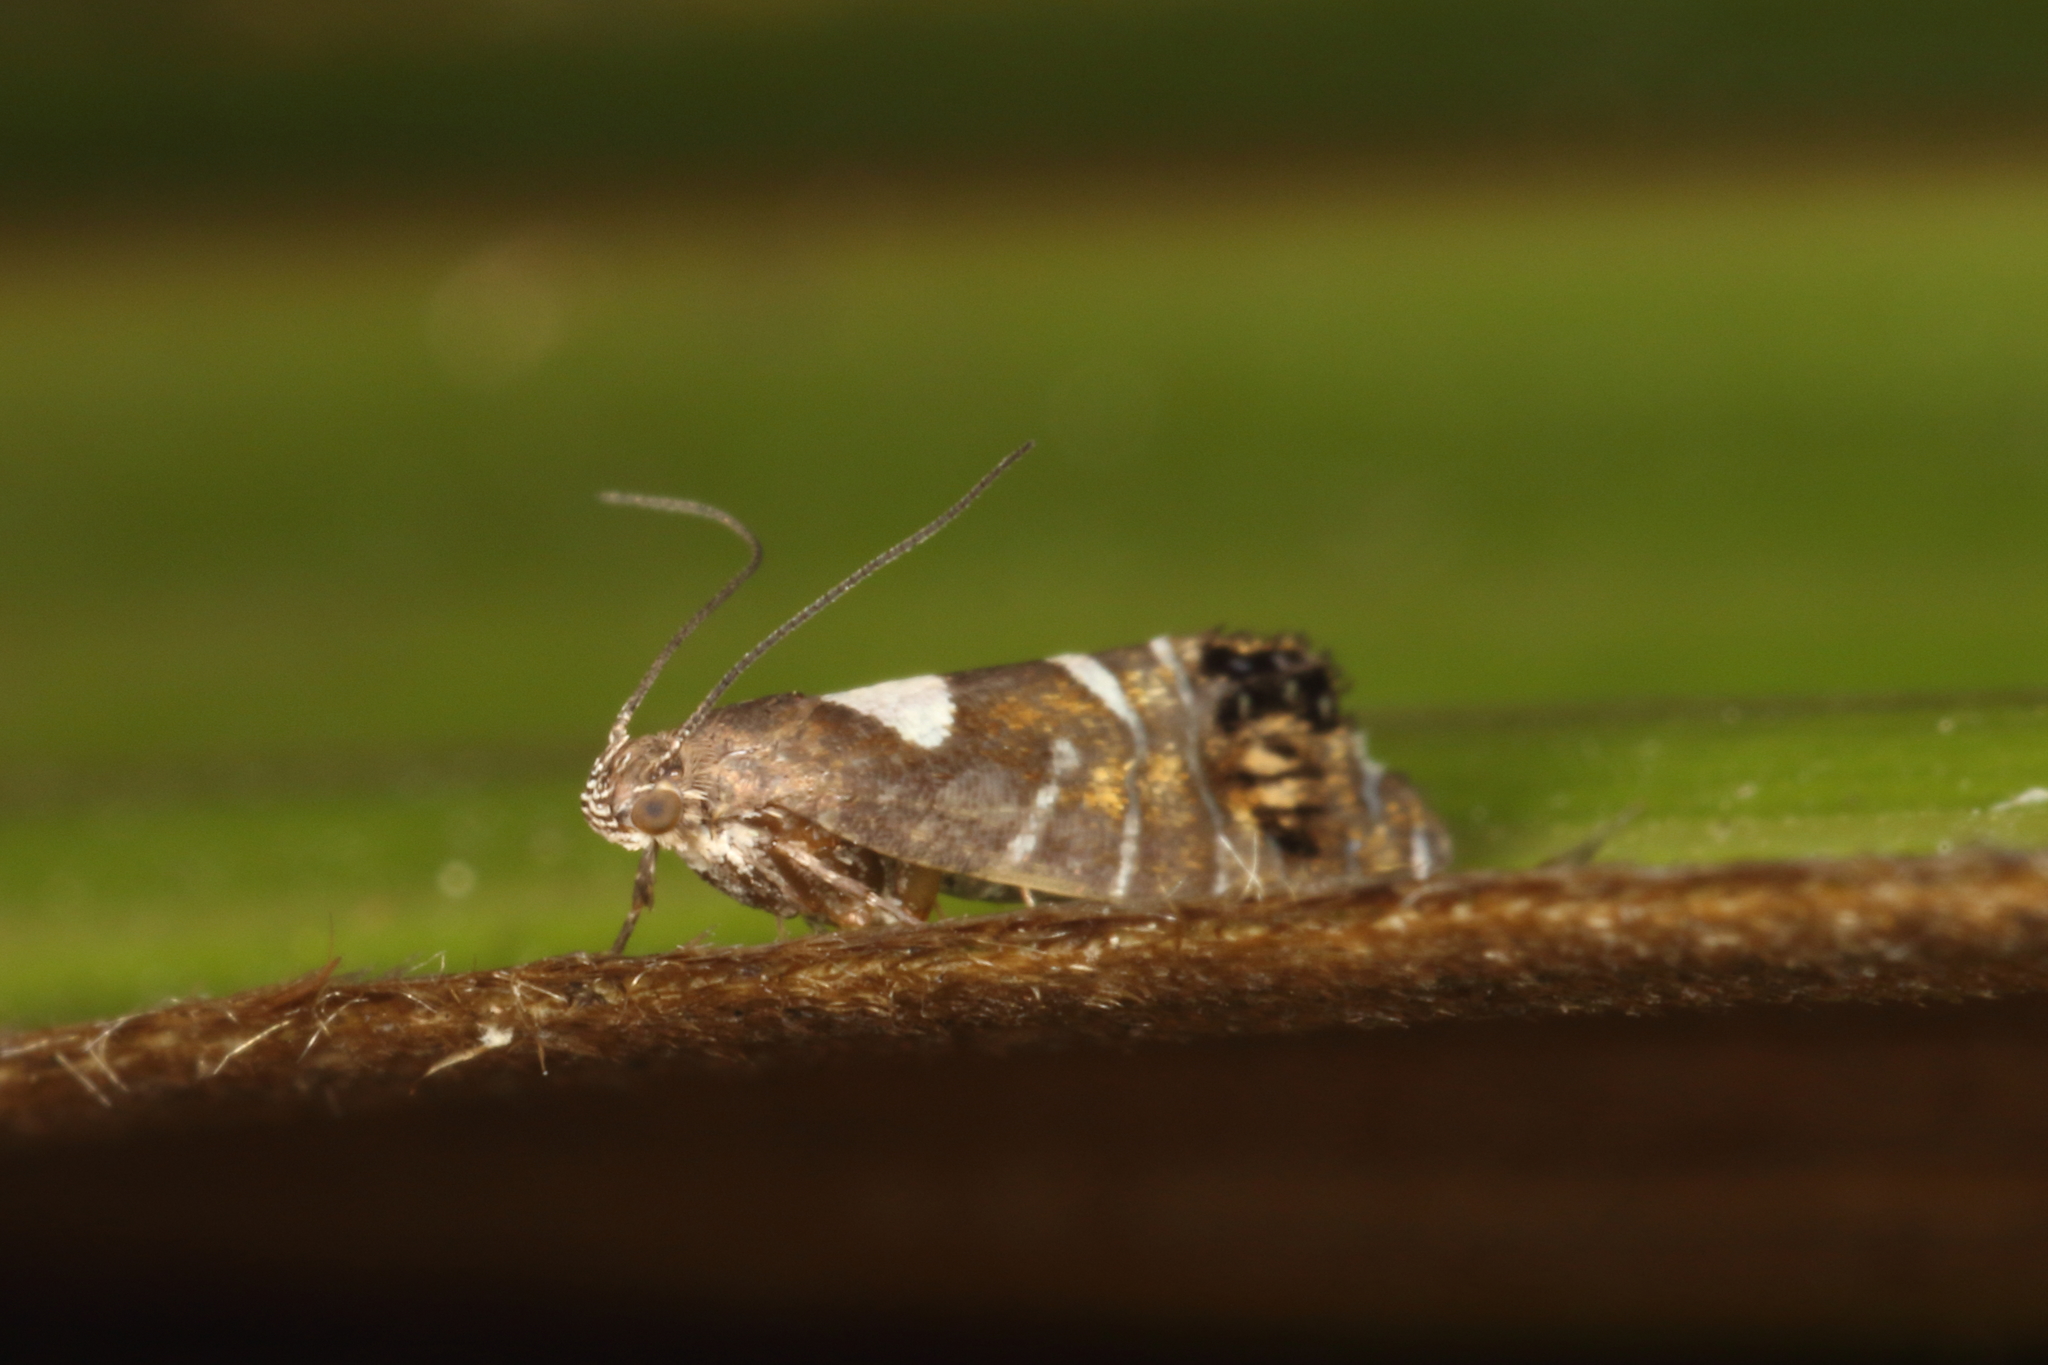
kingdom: Animalia
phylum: Arthropoda
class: Insecta
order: Lepidoptera
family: Glyphipterigidae
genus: Glyphipterix
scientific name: Glyphipterix similis
